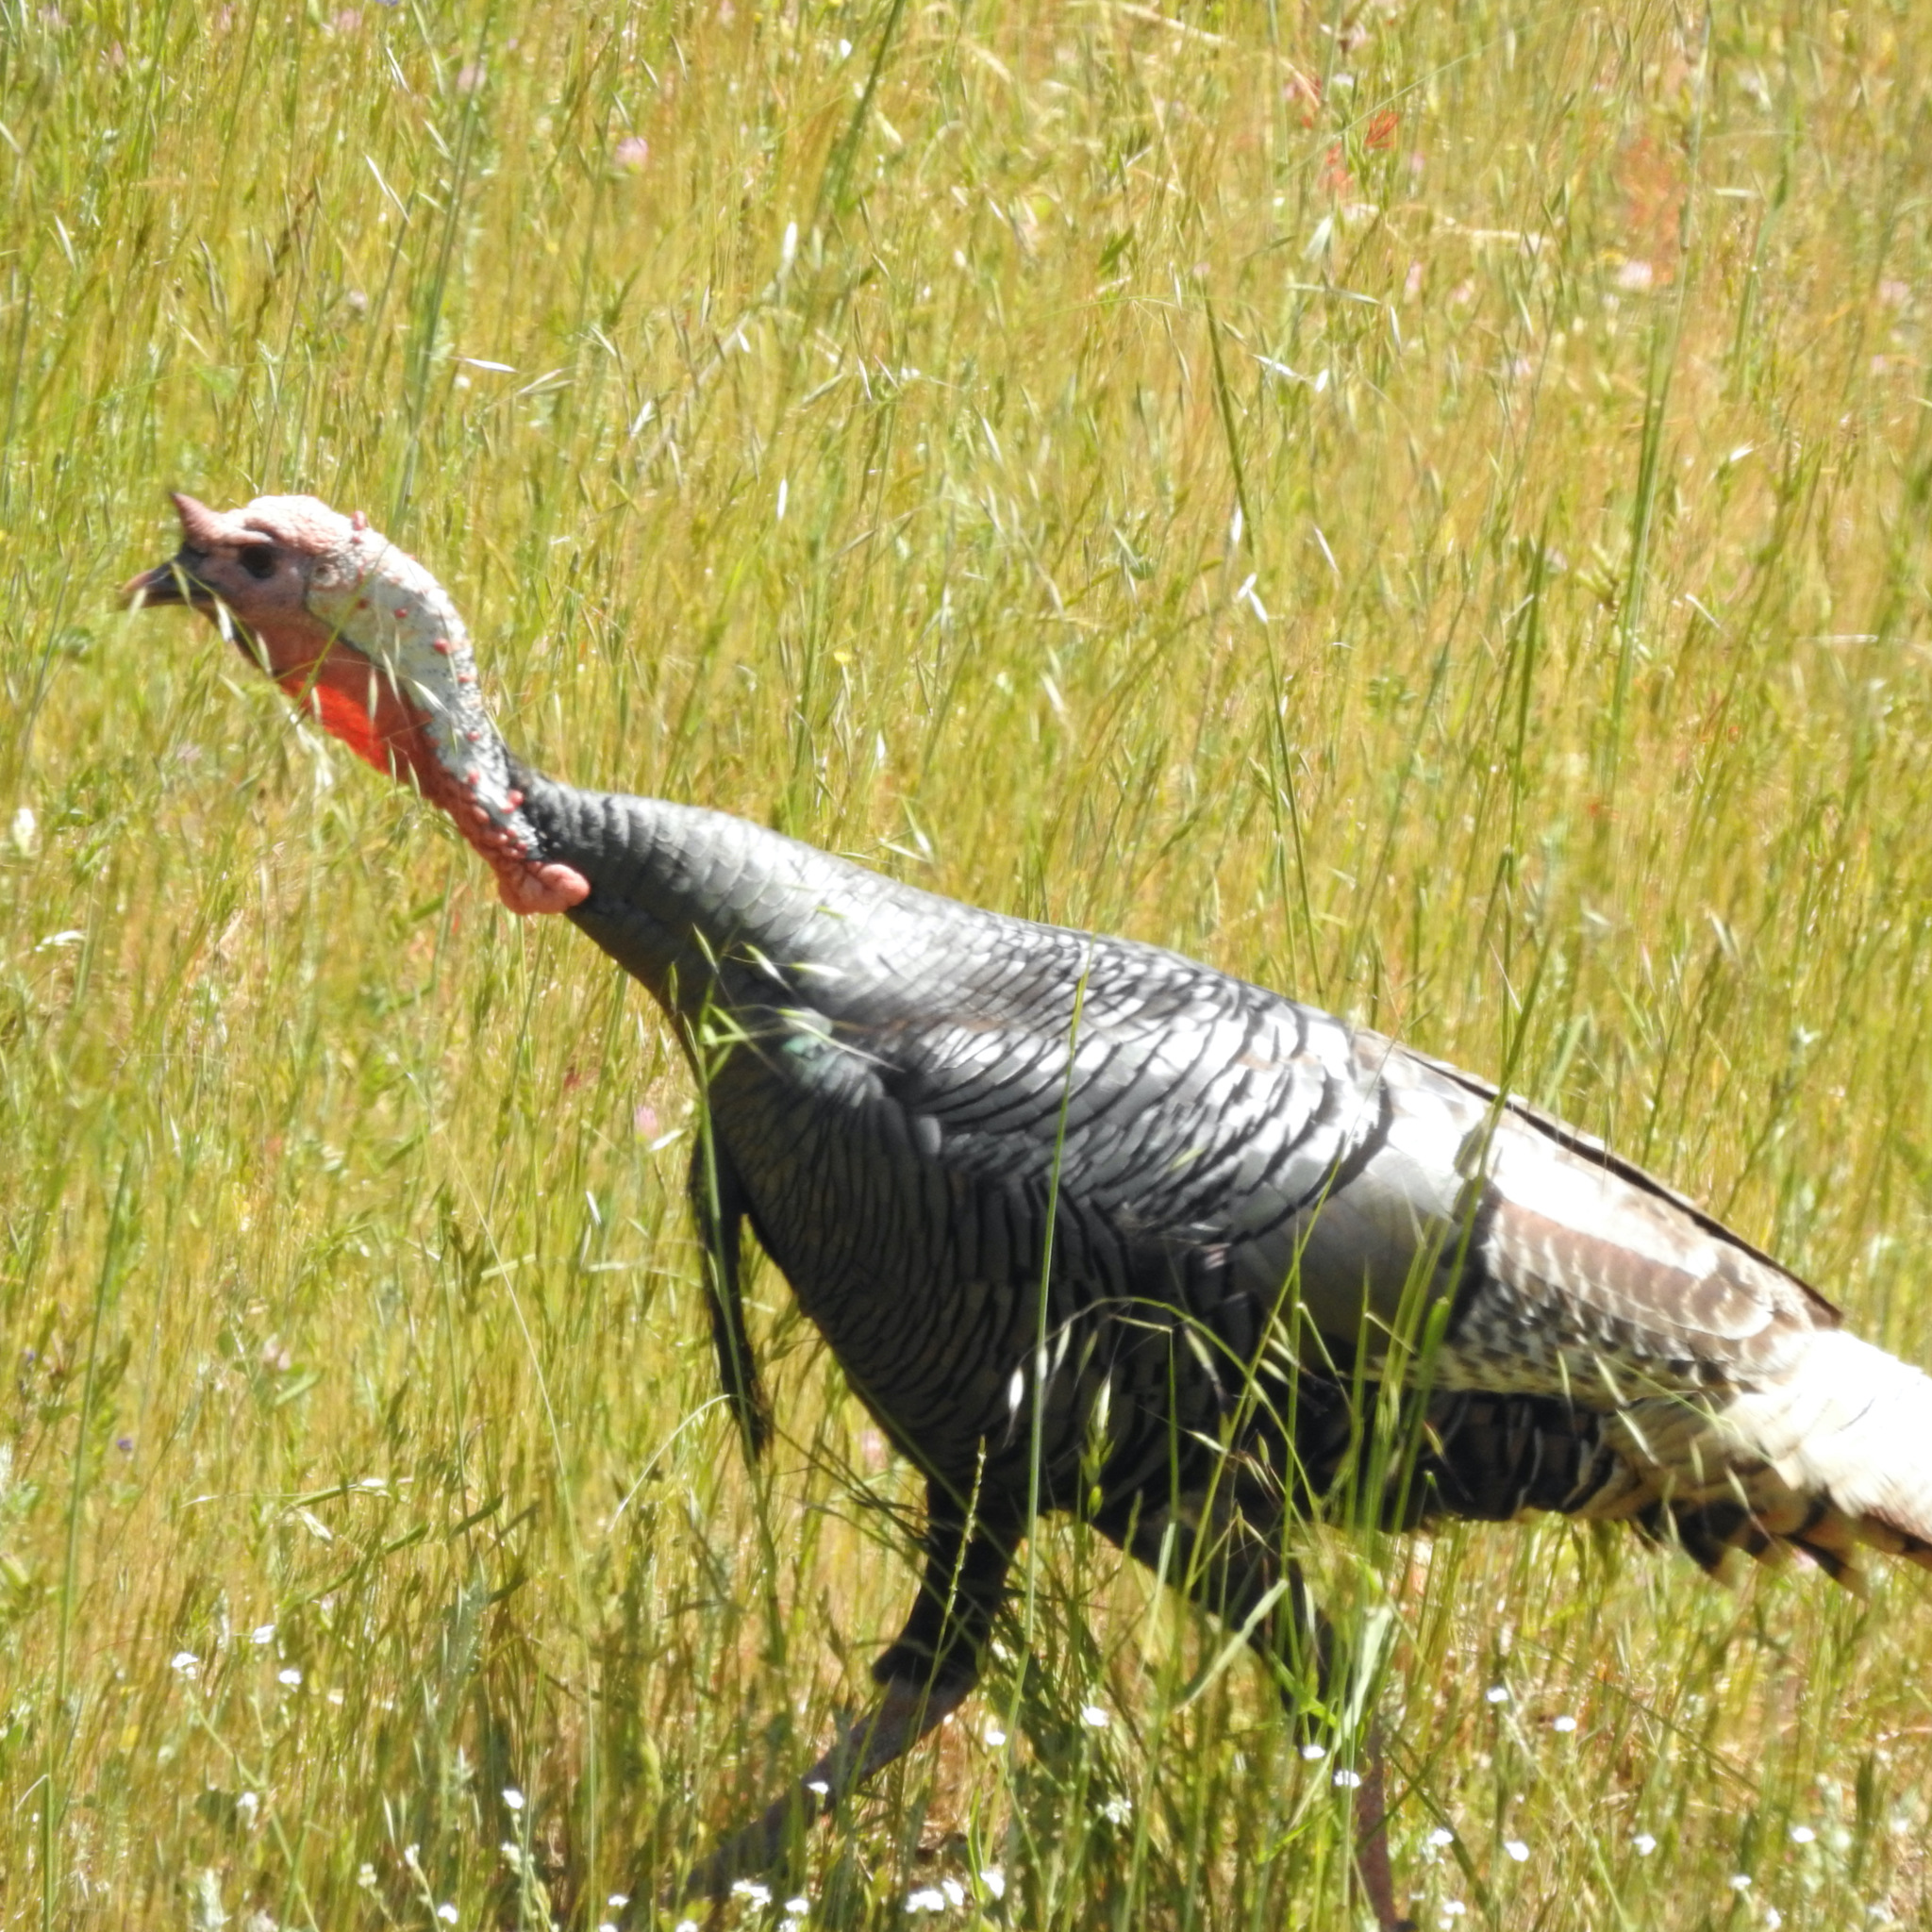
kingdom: Animalia
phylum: Chordata
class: Aves
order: Galliformes
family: Phasianidae
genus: Meleagris
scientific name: Meleagris gallopavo
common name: Wild turkey
